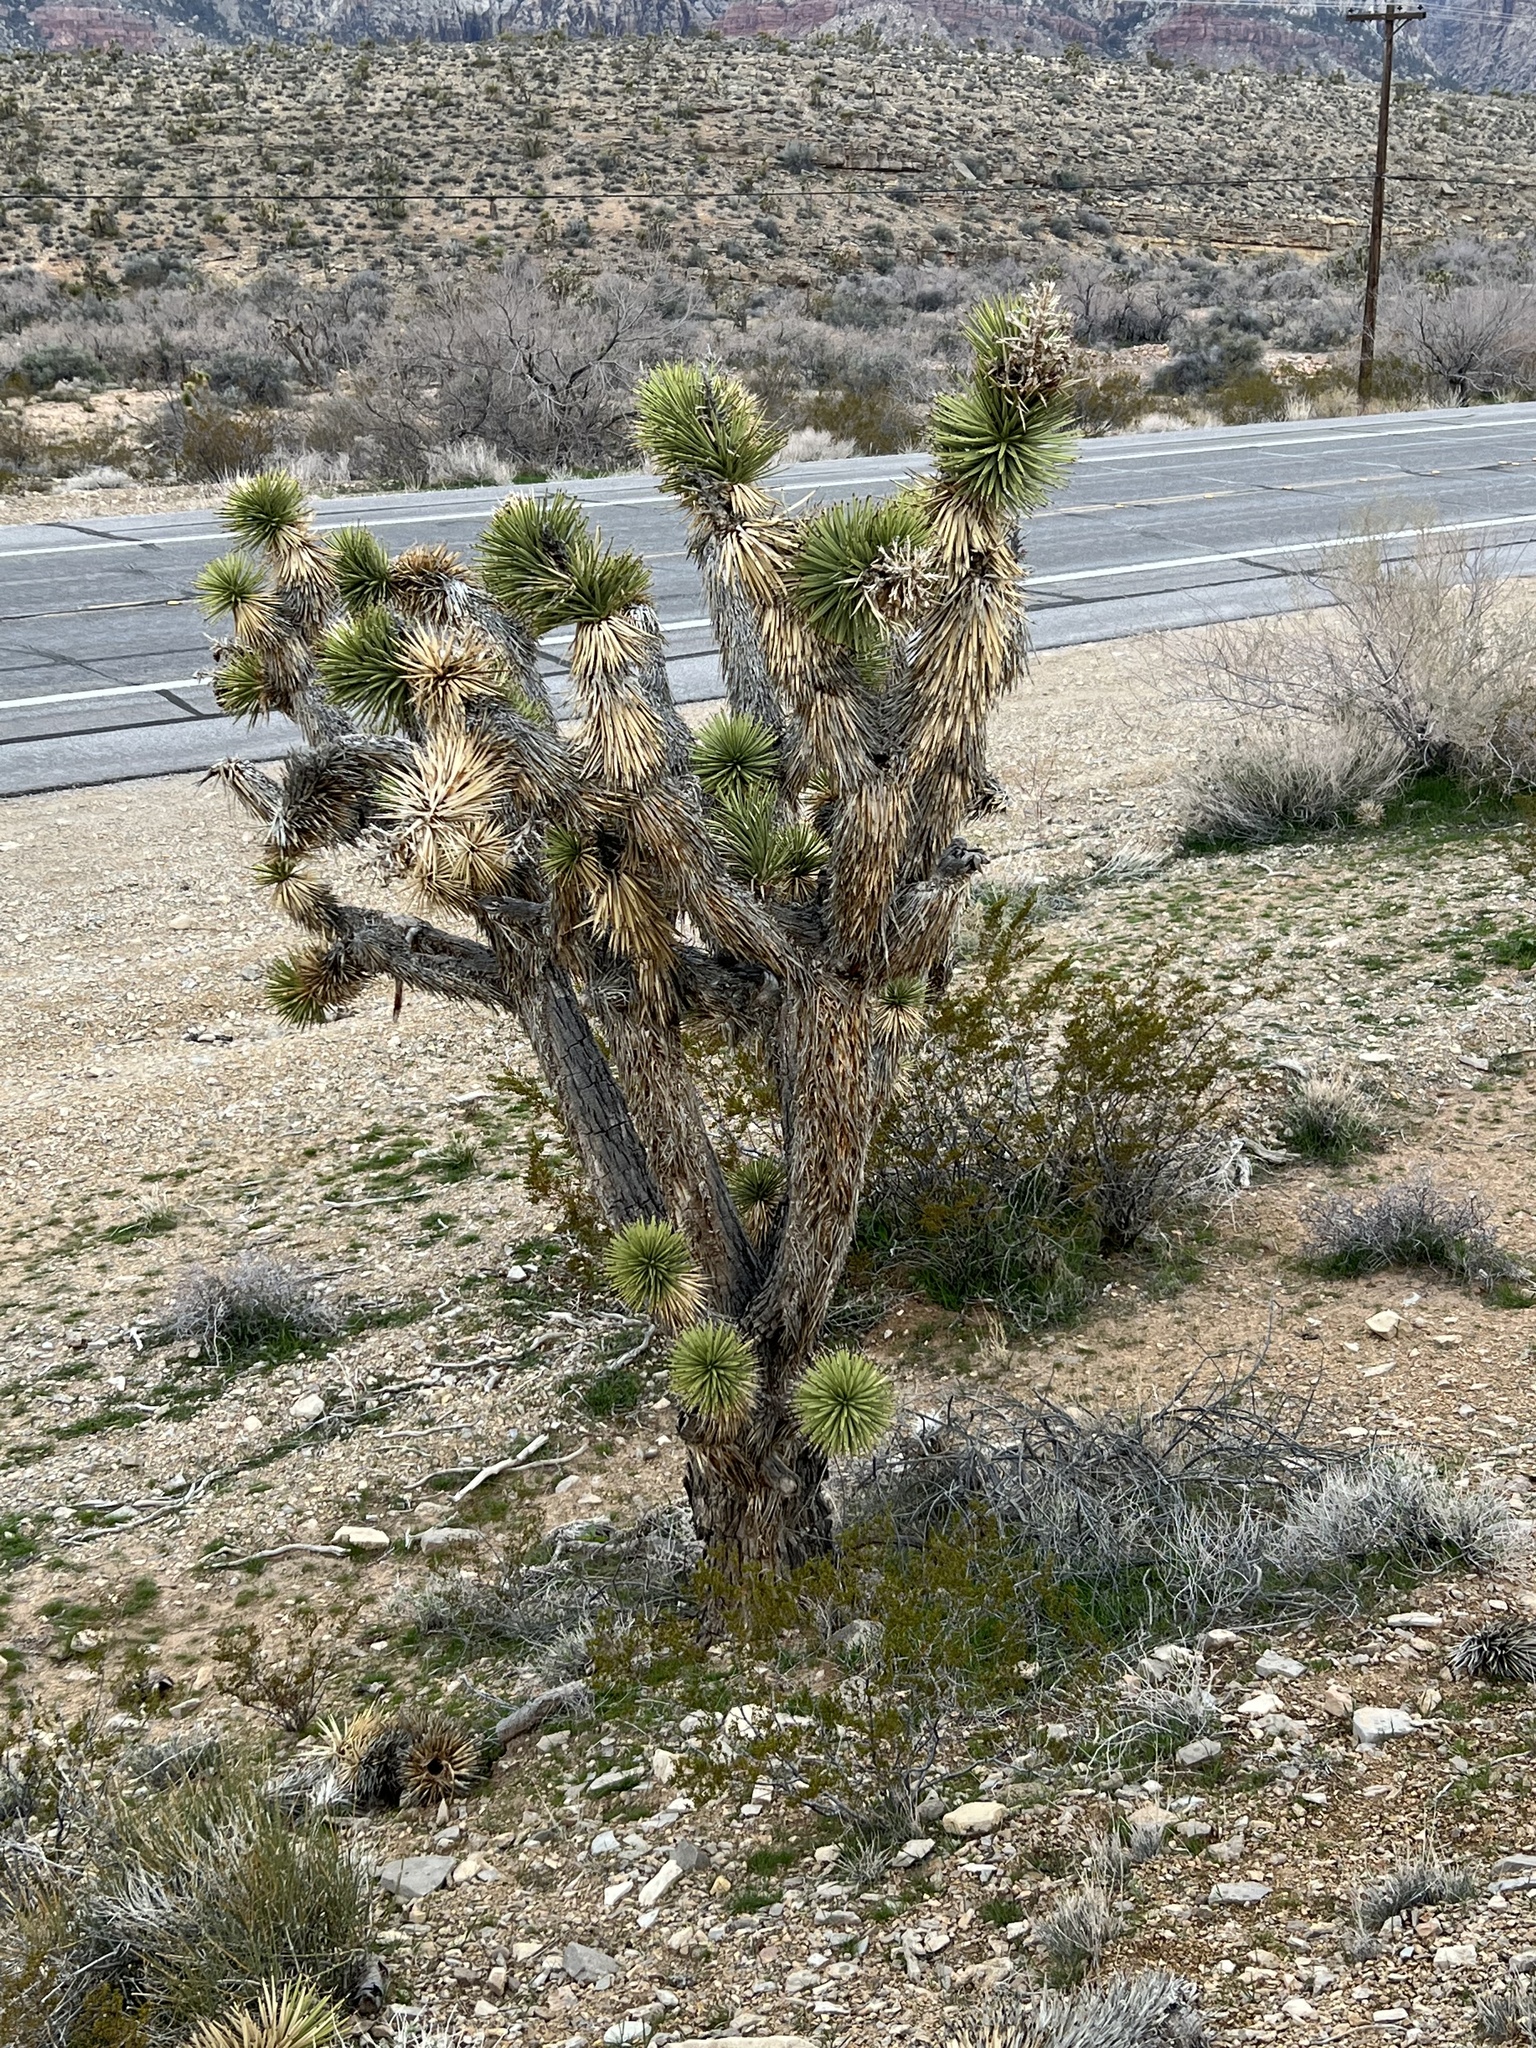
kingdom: Plantae
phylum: Tracheophyta
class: Liliopsida
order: Asparagales
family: Asparagaceae
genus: Yucca
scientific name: Yucca brevifolia
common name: Joshua tree
